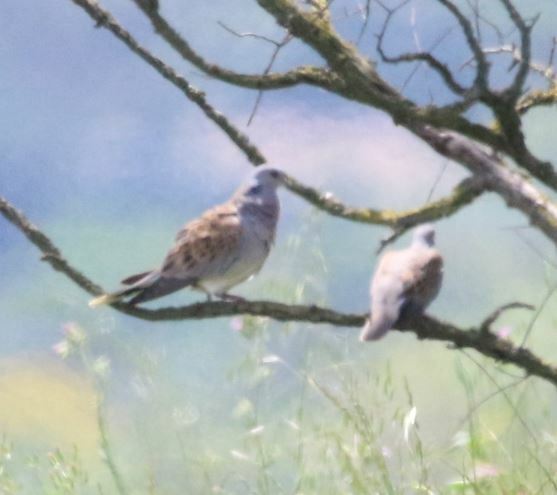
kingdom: Animalia
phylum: Chordata
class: Aves
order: Columbiformes
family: Columbidae
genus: Streptopelia
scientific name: Streptopelia turtur
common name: European turtle dove
